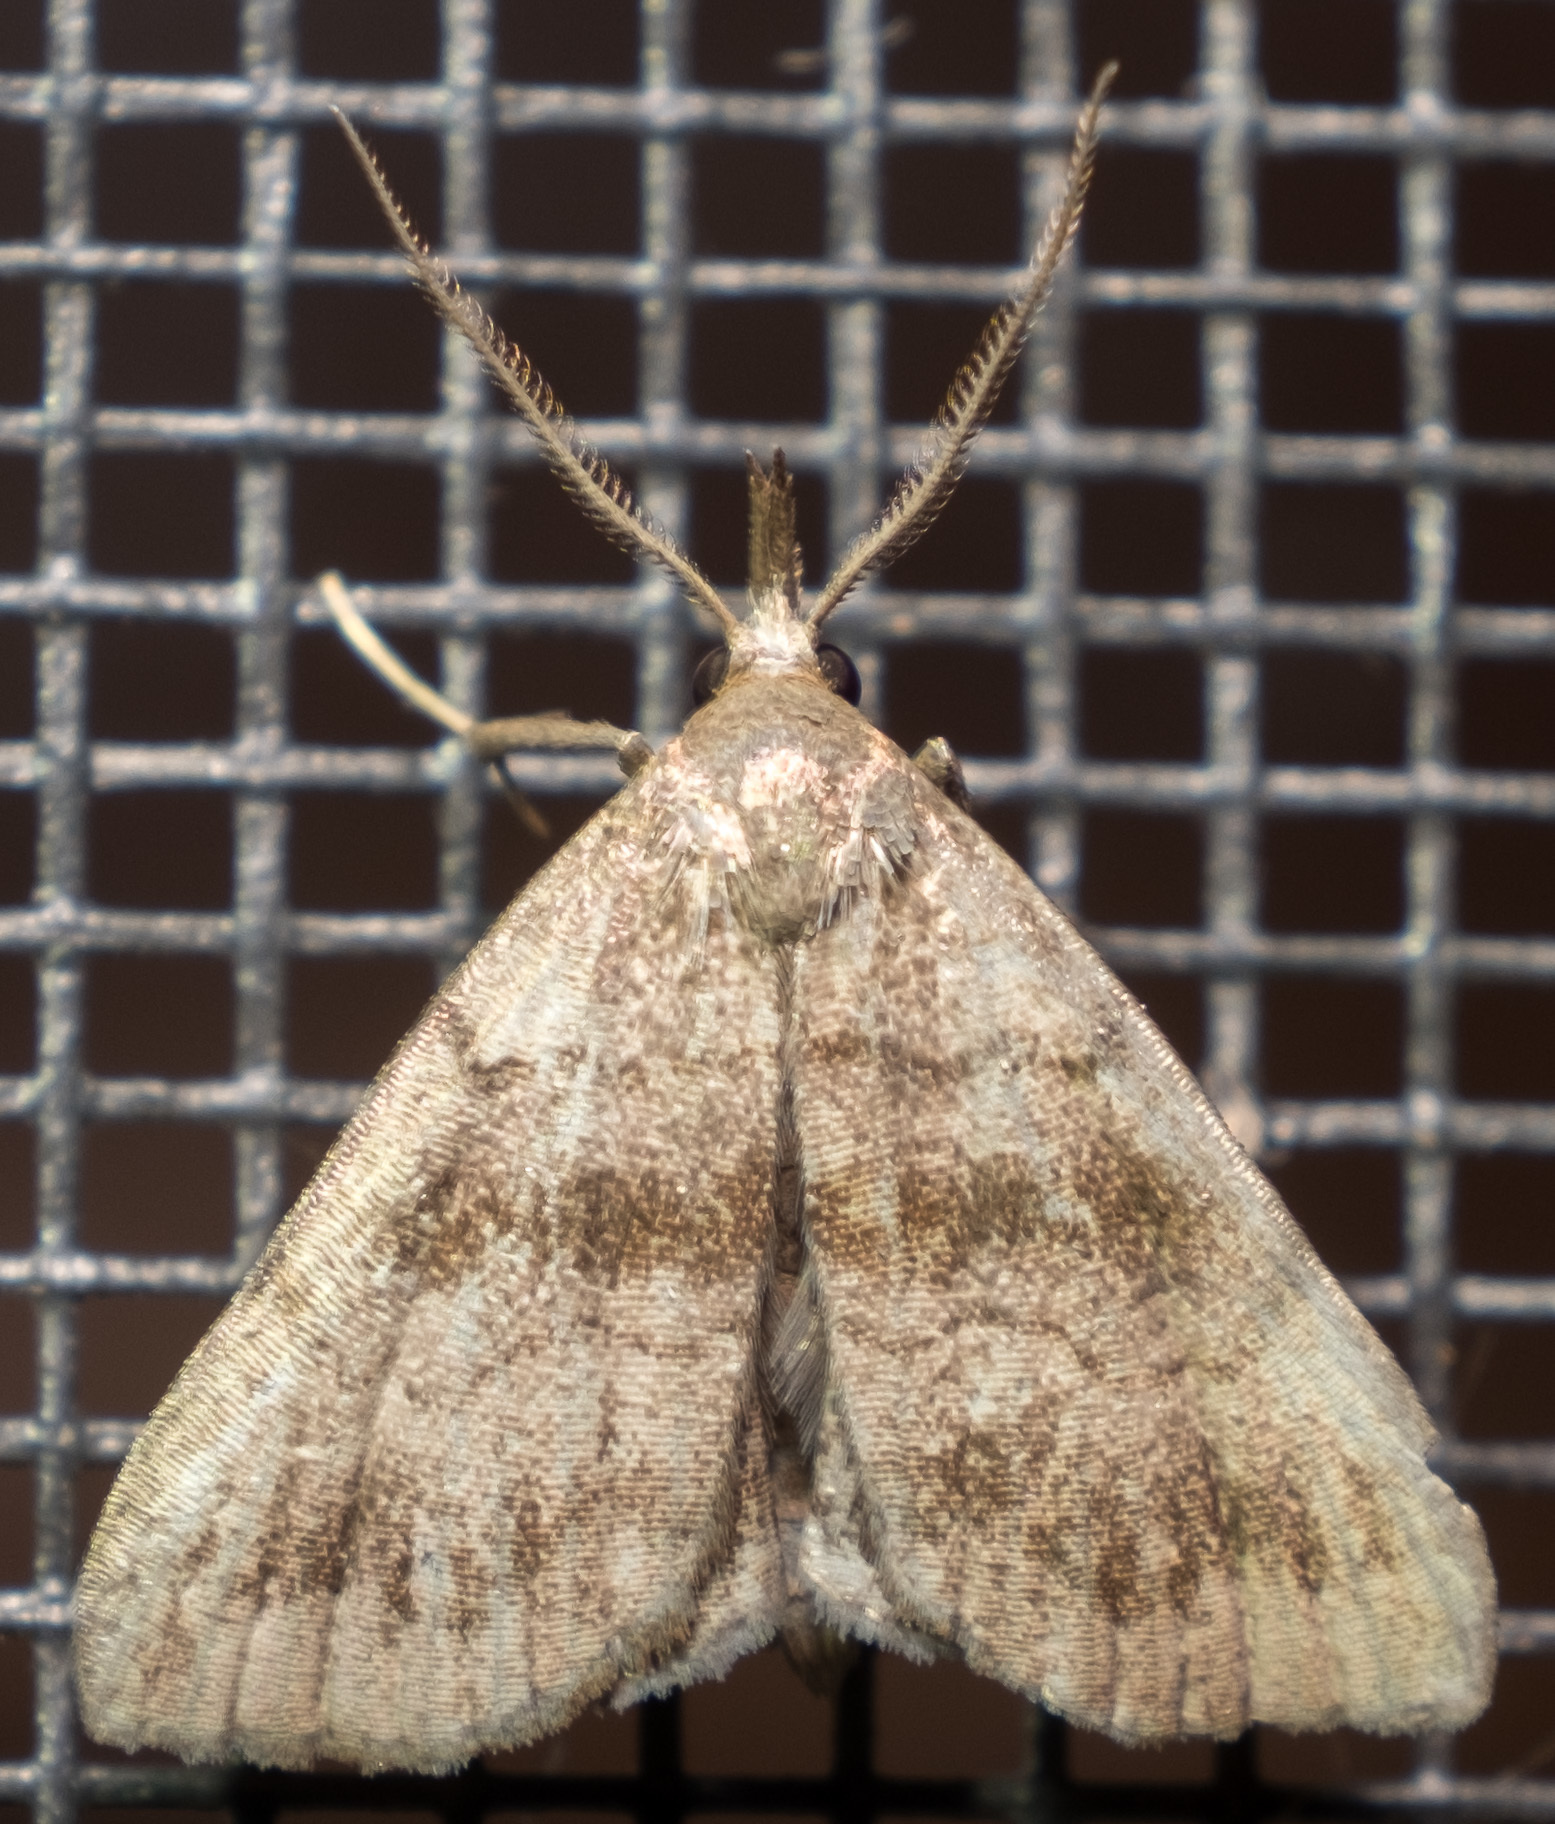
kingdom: Animalia
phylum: Arthropoda
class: Insecta
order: Lepidoptera
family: Erebidae
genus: Phalaenostola
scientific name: Phalaenostola larentioides
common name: Black-banded owlet
